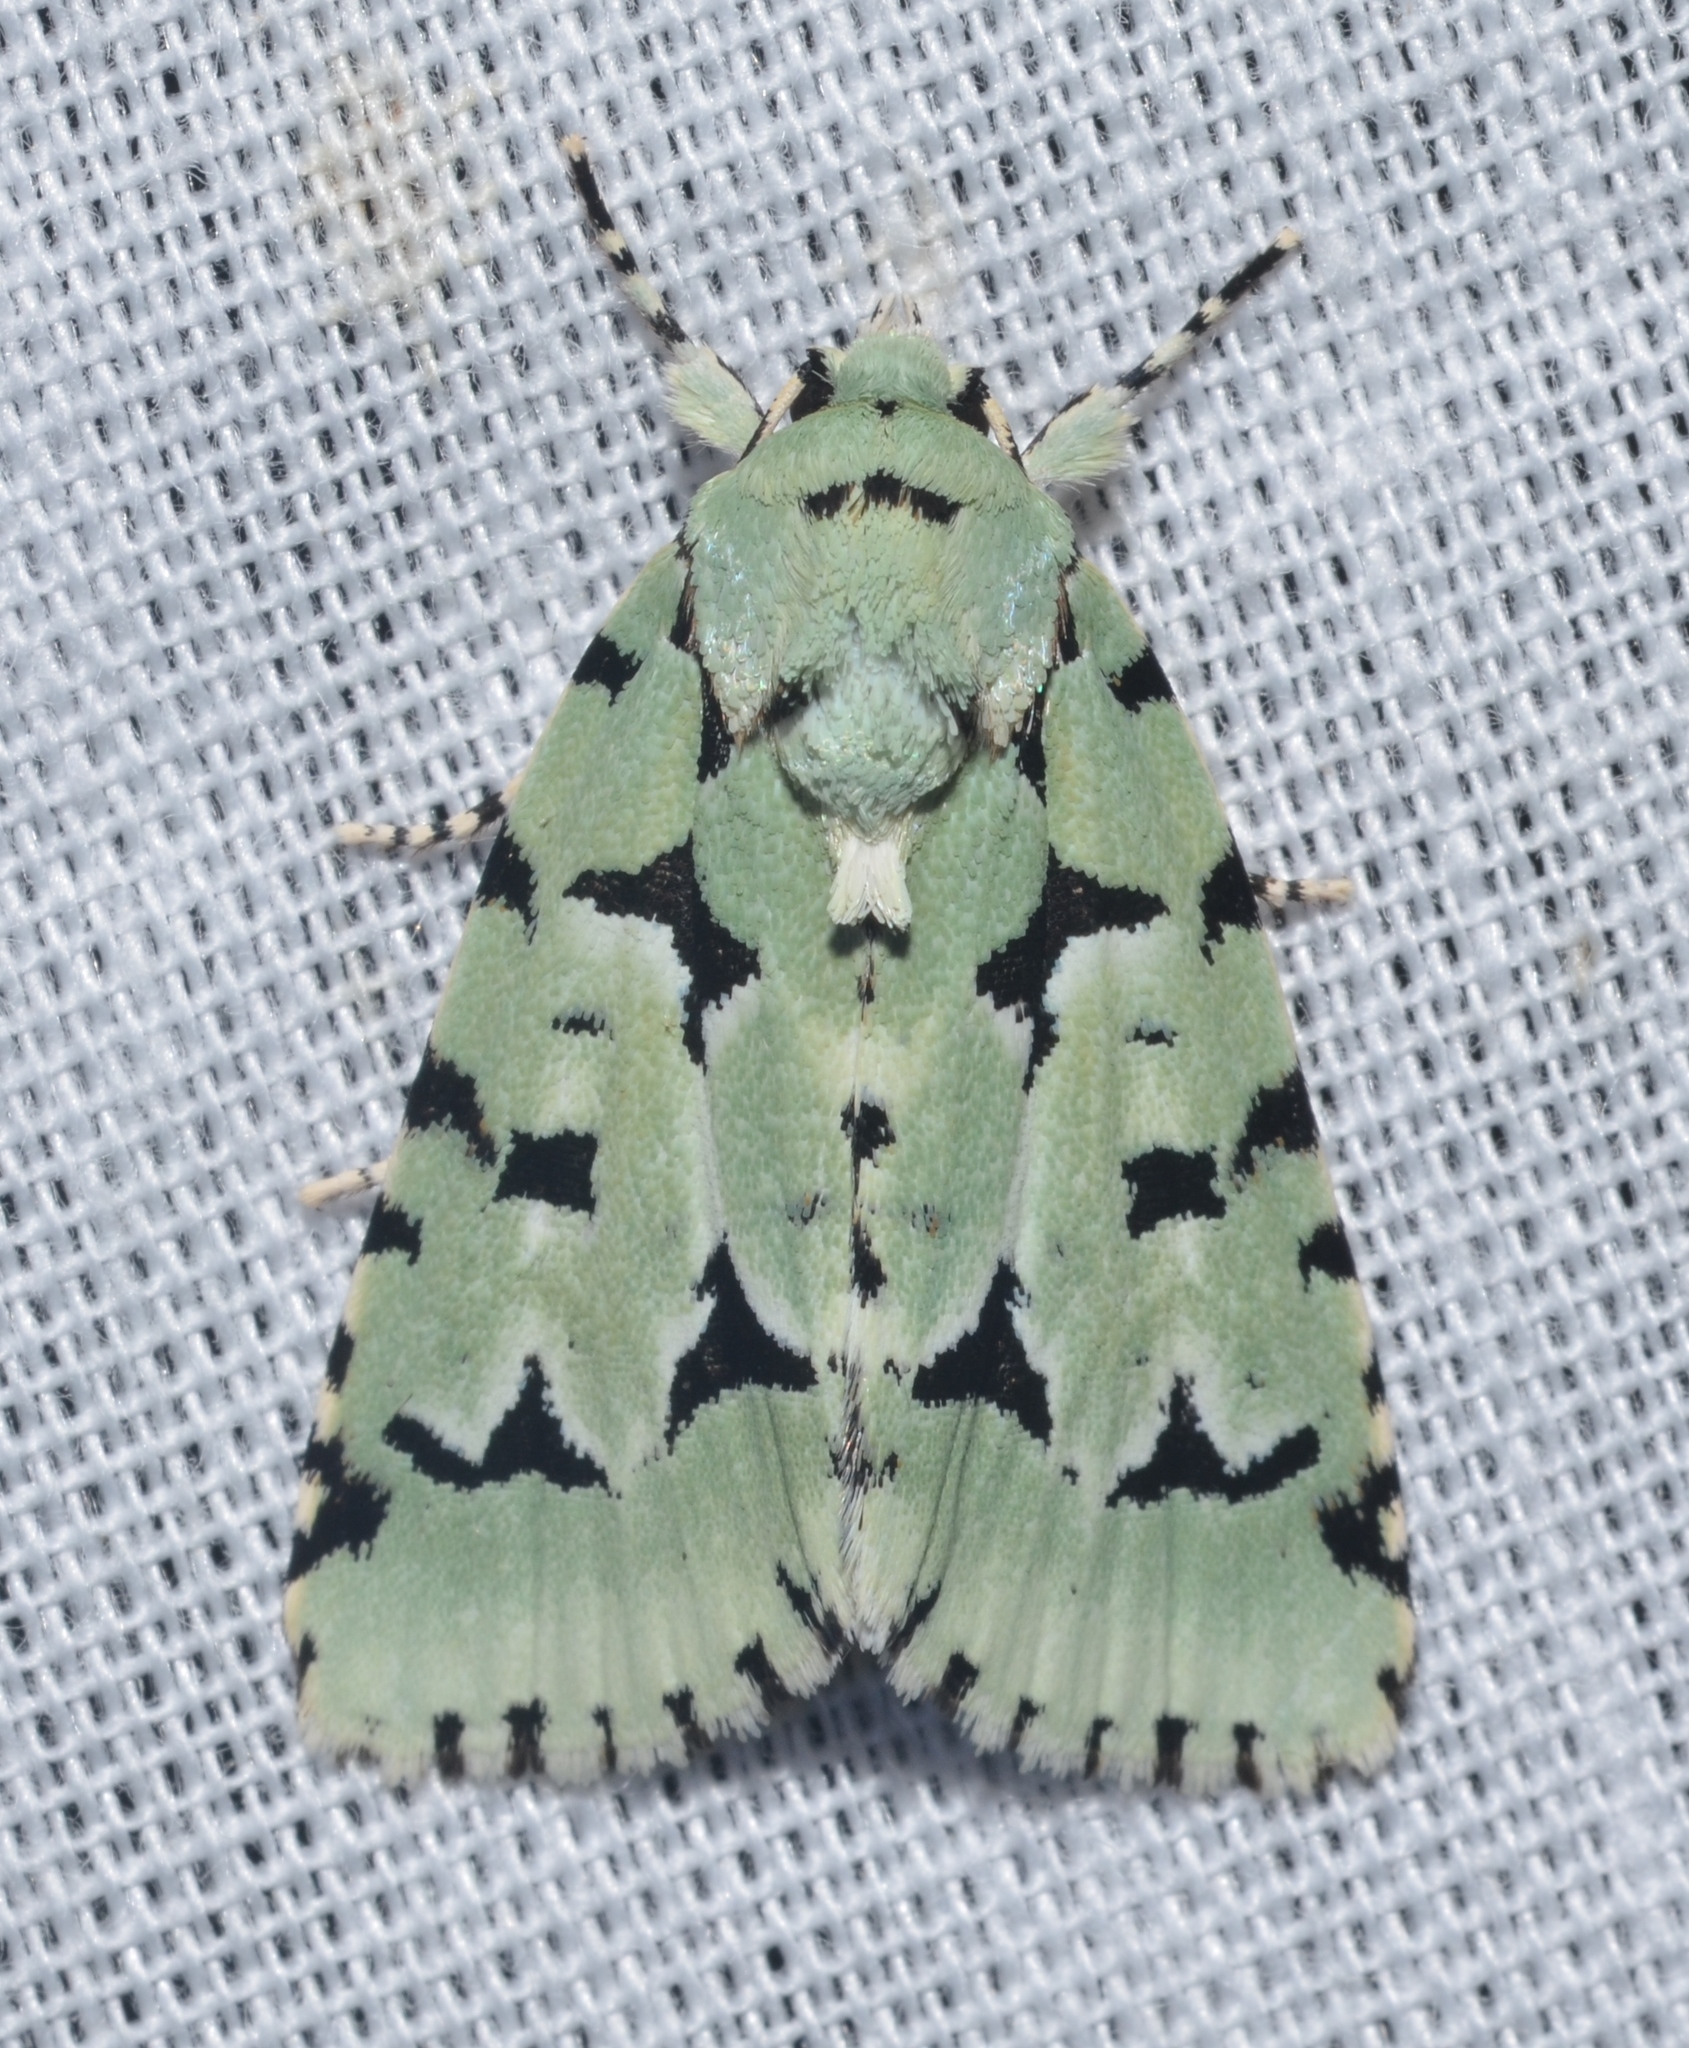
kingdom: Animalia
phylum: Arthropoda
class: Insecta
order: Lepidoptera
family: Noctuidae
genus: Acronicta
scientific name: Acronicta fallax
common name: Green marvel
